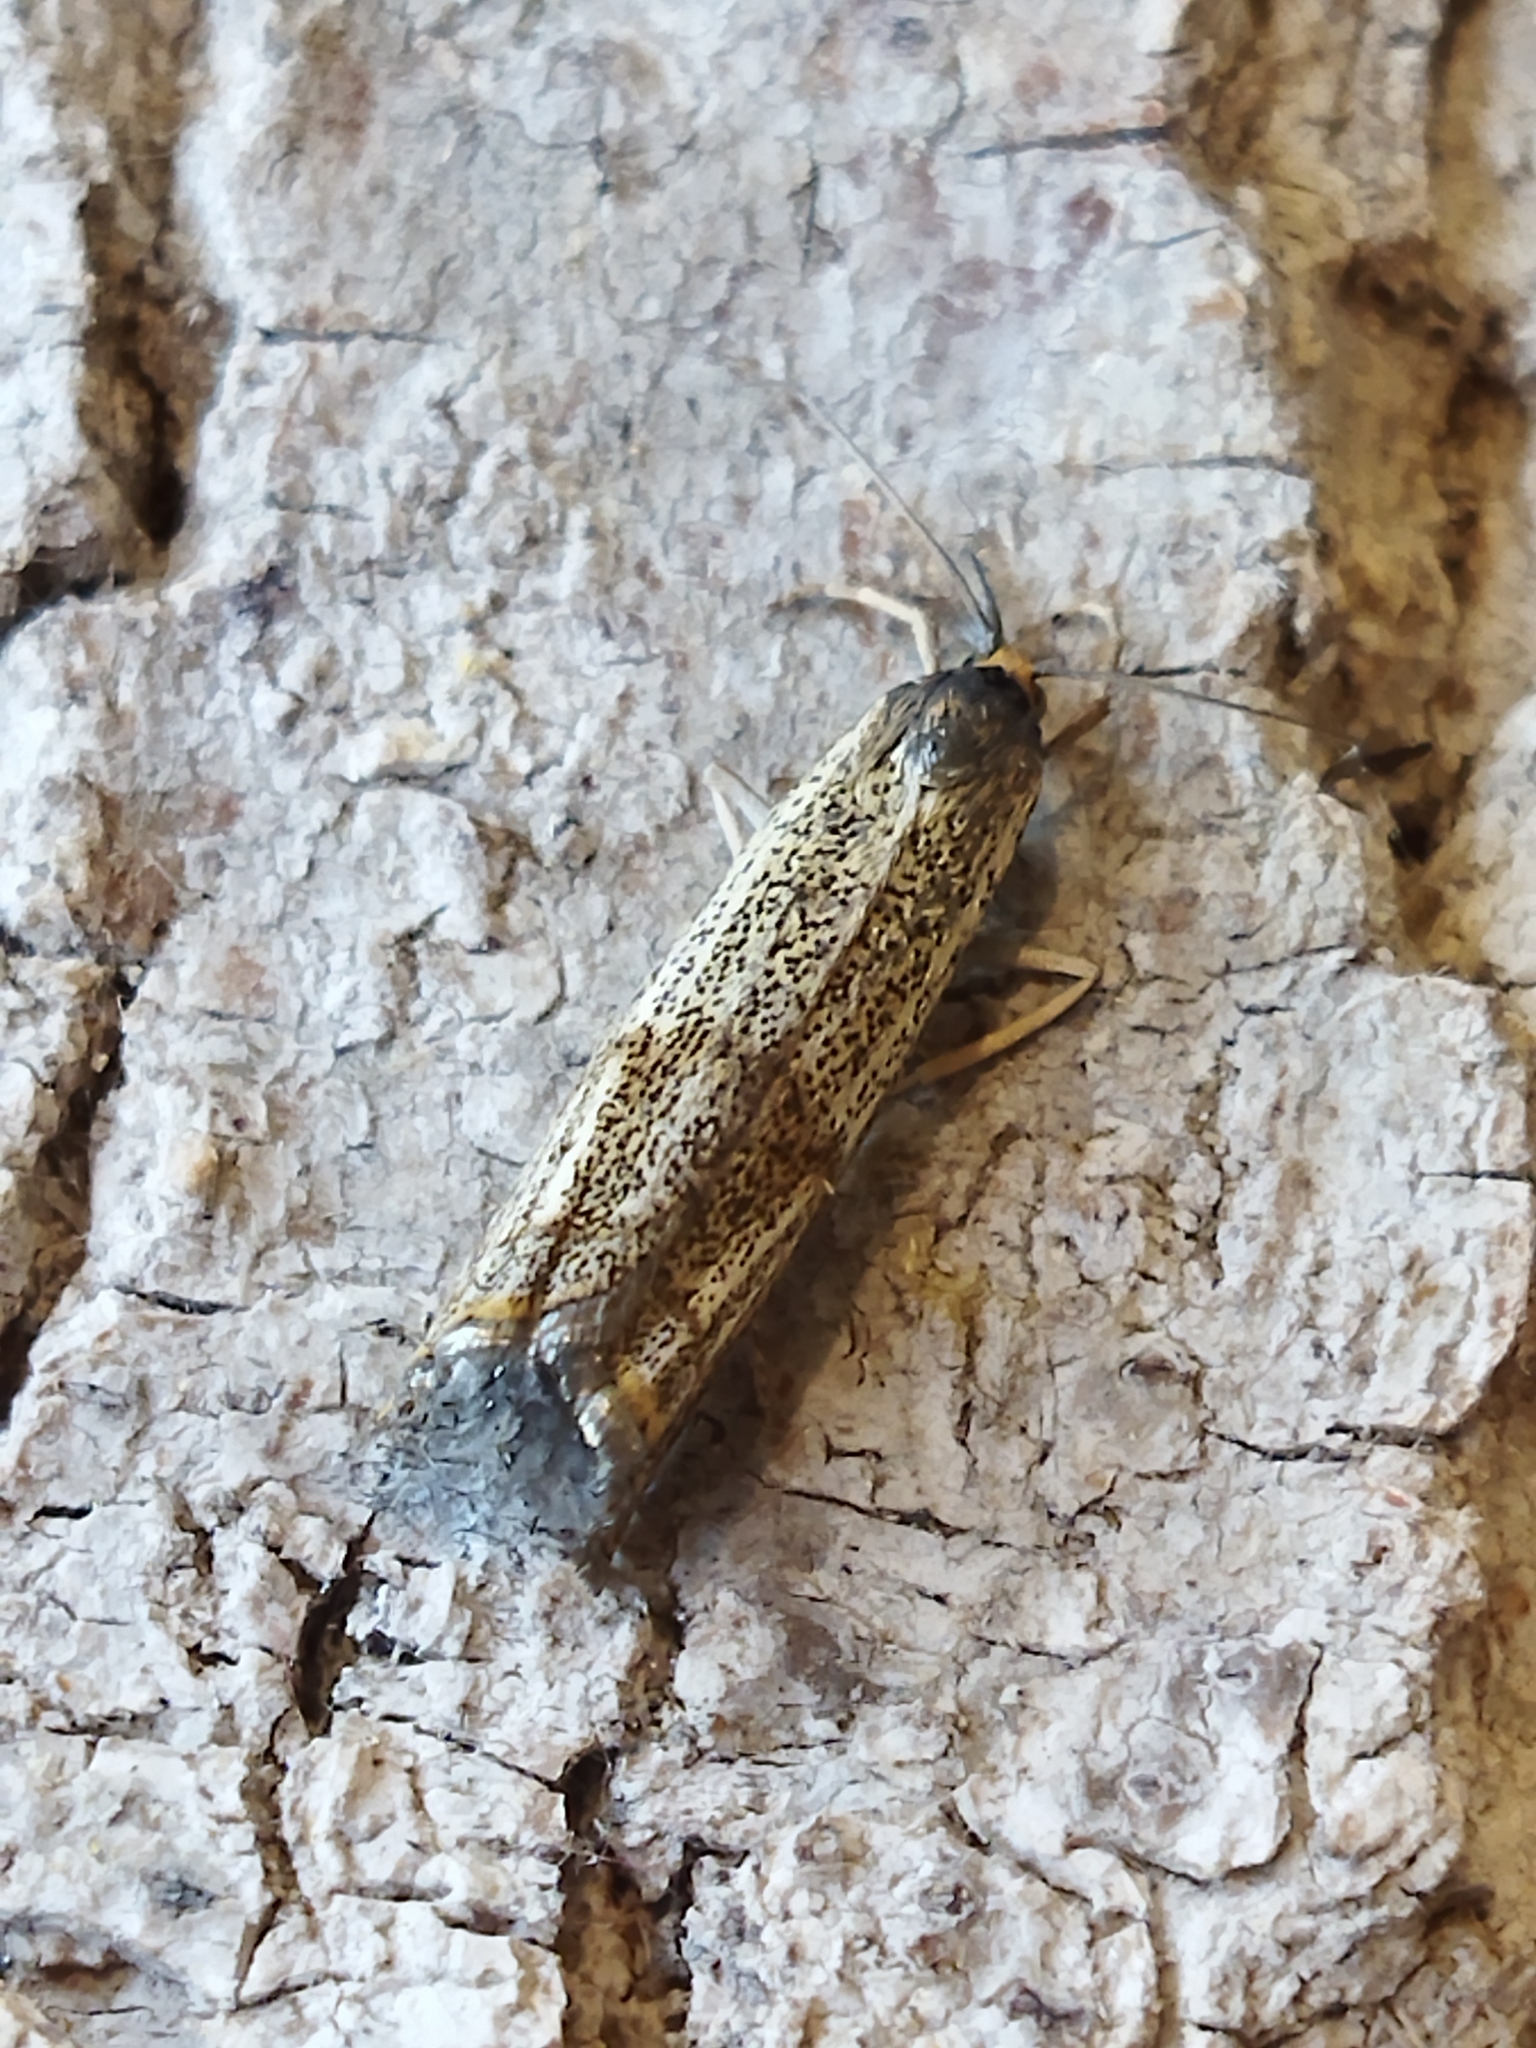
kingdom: Animalia
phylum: Arthropoda
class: Insecta
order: Lepidoptera
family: Crambidae
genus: Thisanotia
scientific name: Thisanotia chrysonuchella
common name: Powdered grass-veneer
